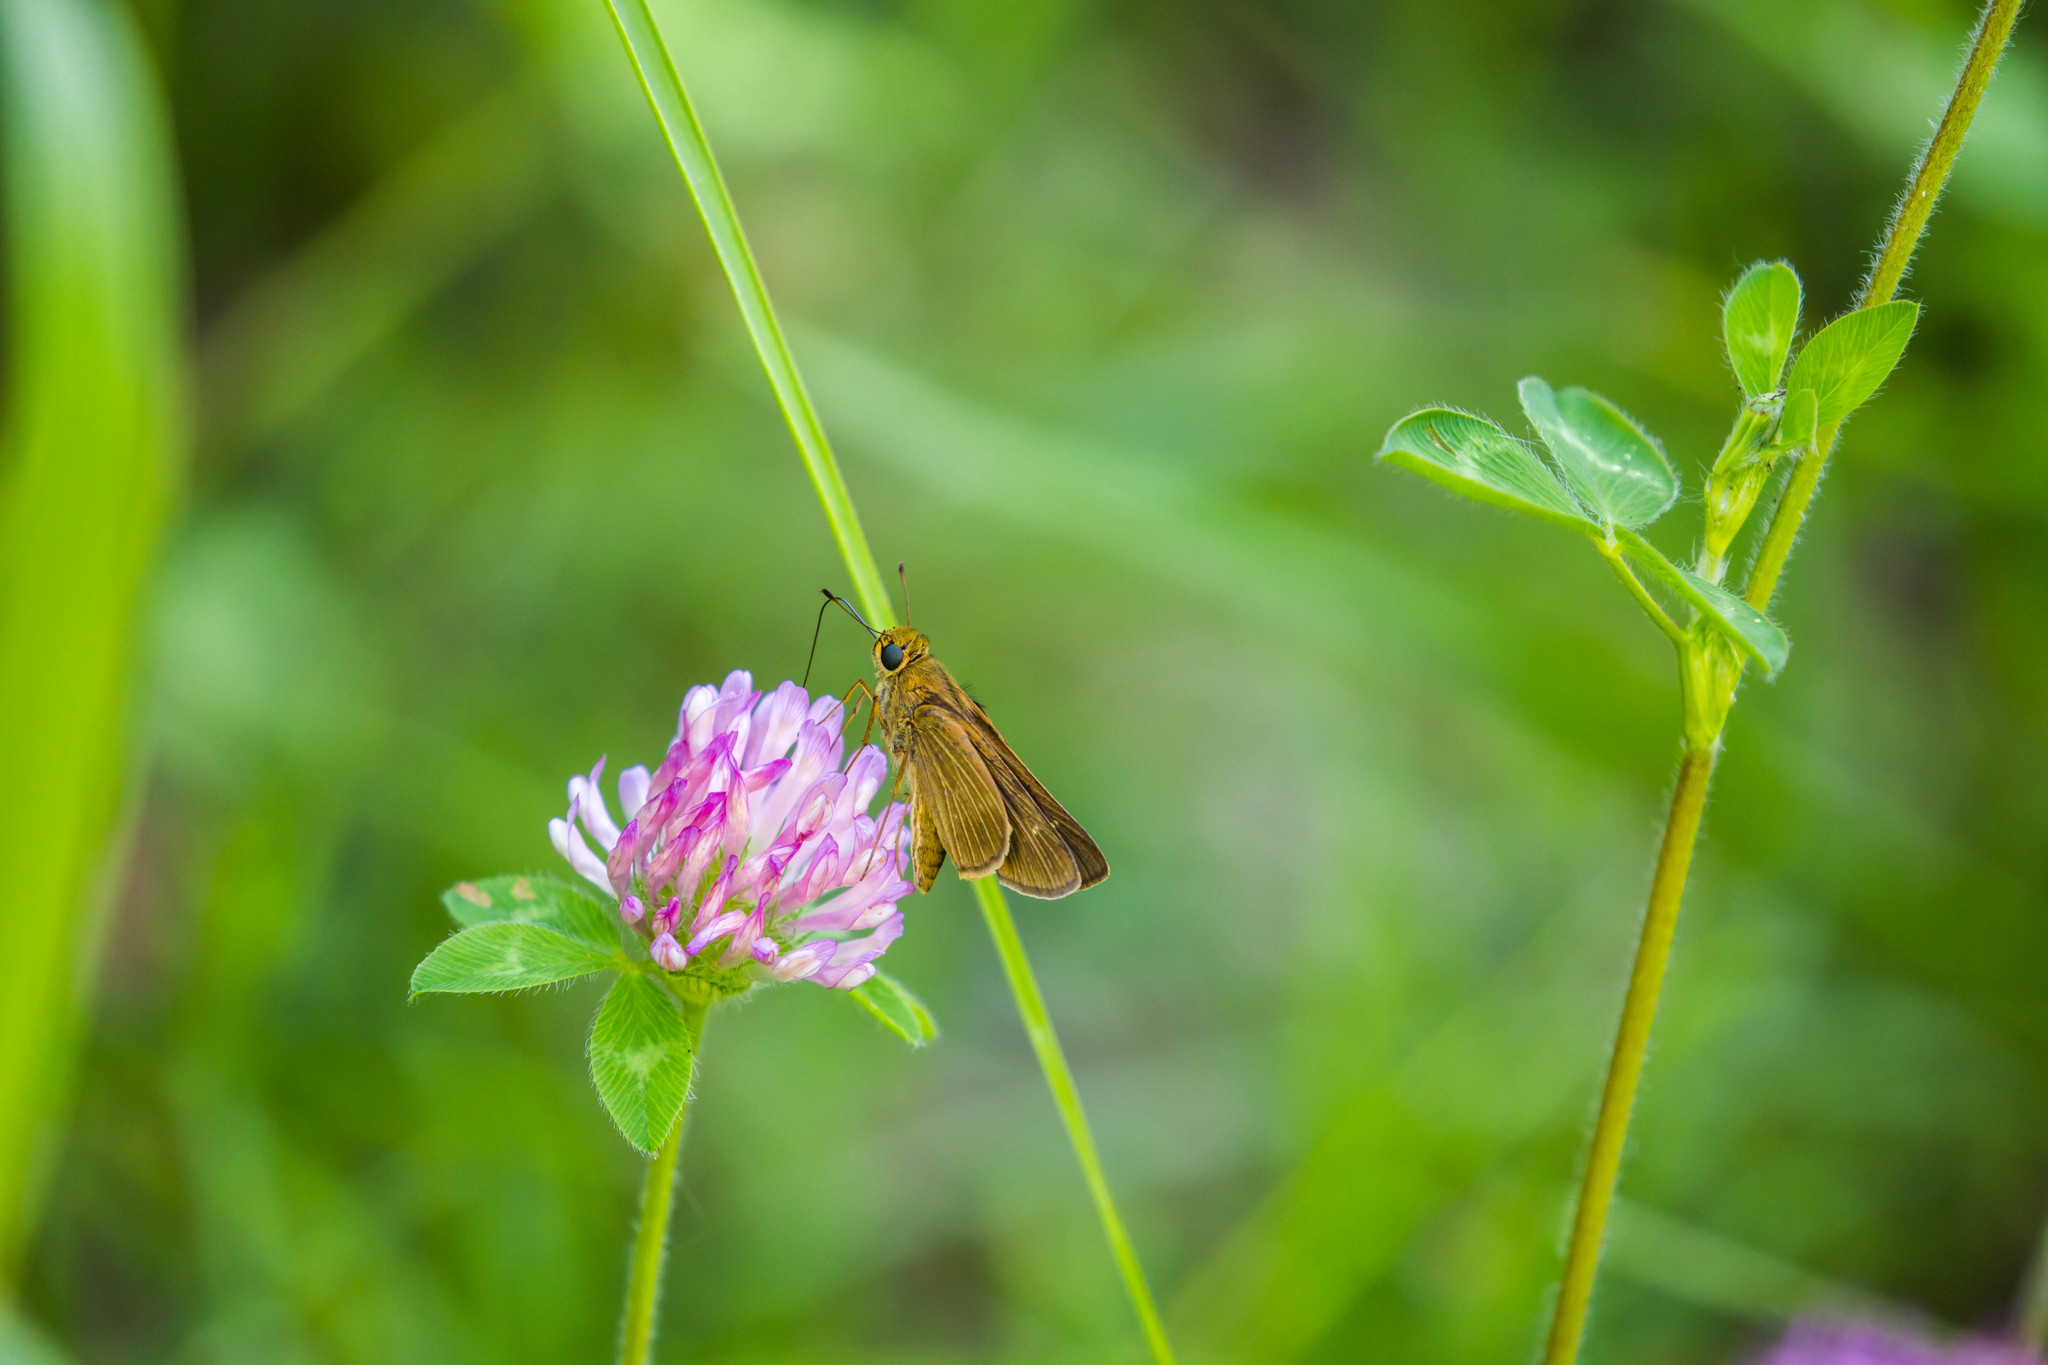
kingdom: Animalia
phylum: Arthropoda
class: Insecta
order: Lepidoptera
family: Hesperiidae
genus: Panoquina
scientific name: Panoquina ocola
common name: Ocola skipper
